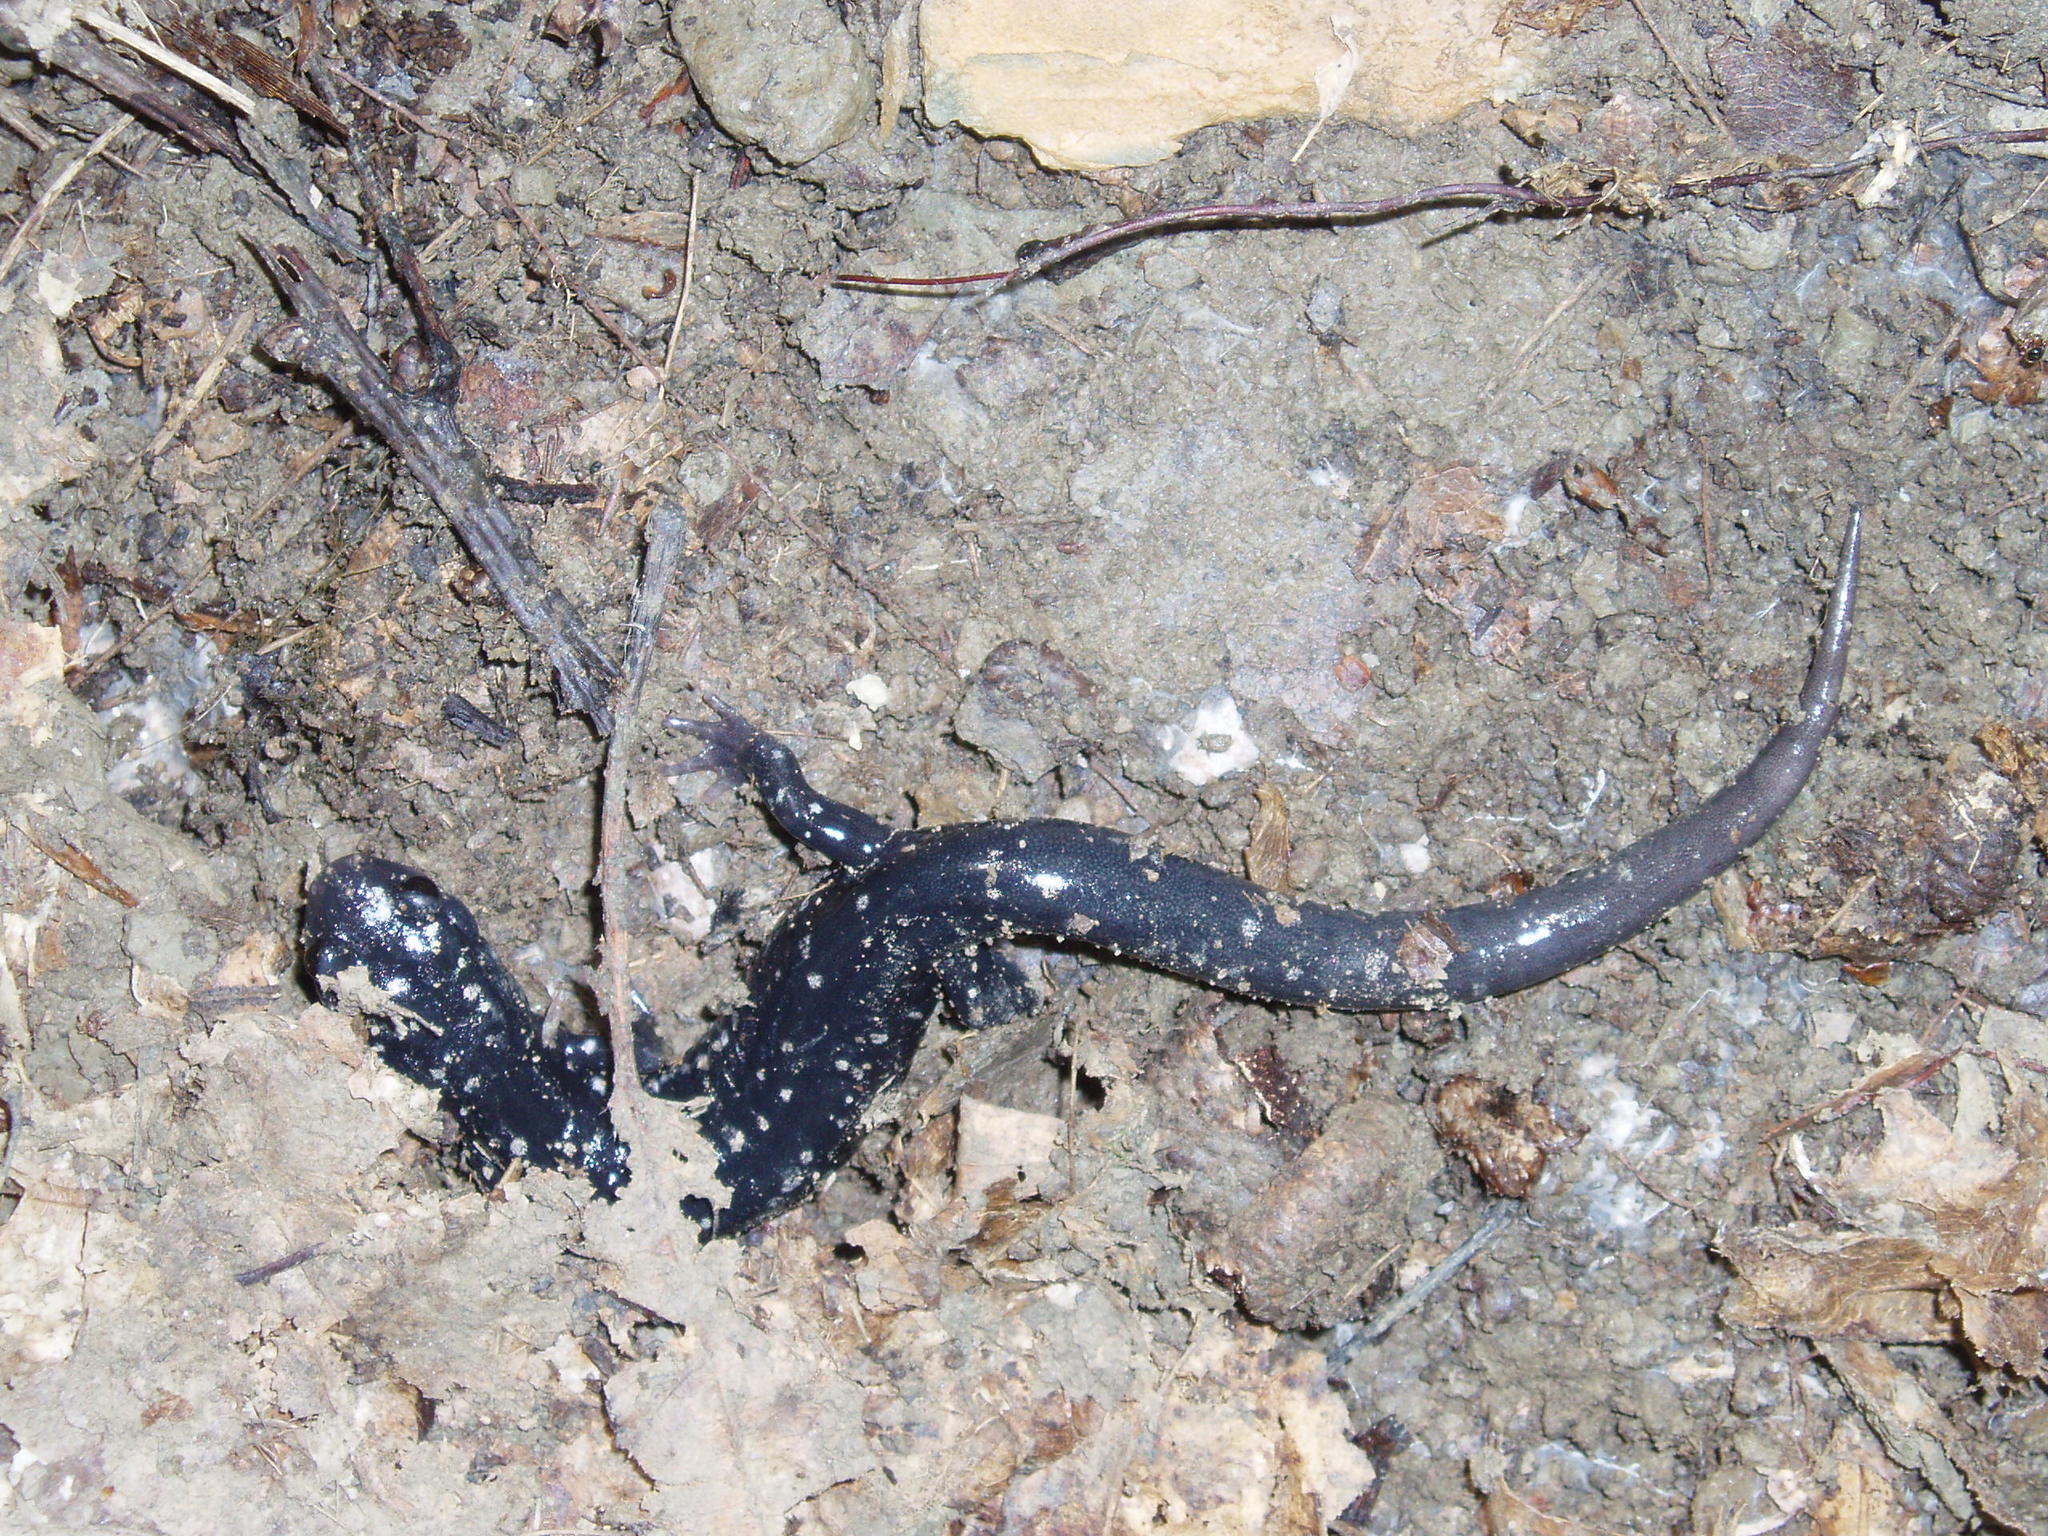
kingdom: Animalia
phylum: Chordata
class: Amphibia
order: Caudata
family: Plethodontidae
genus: Plethodon
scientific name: Plethodon glutinosus
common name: Northern slimy salamander
